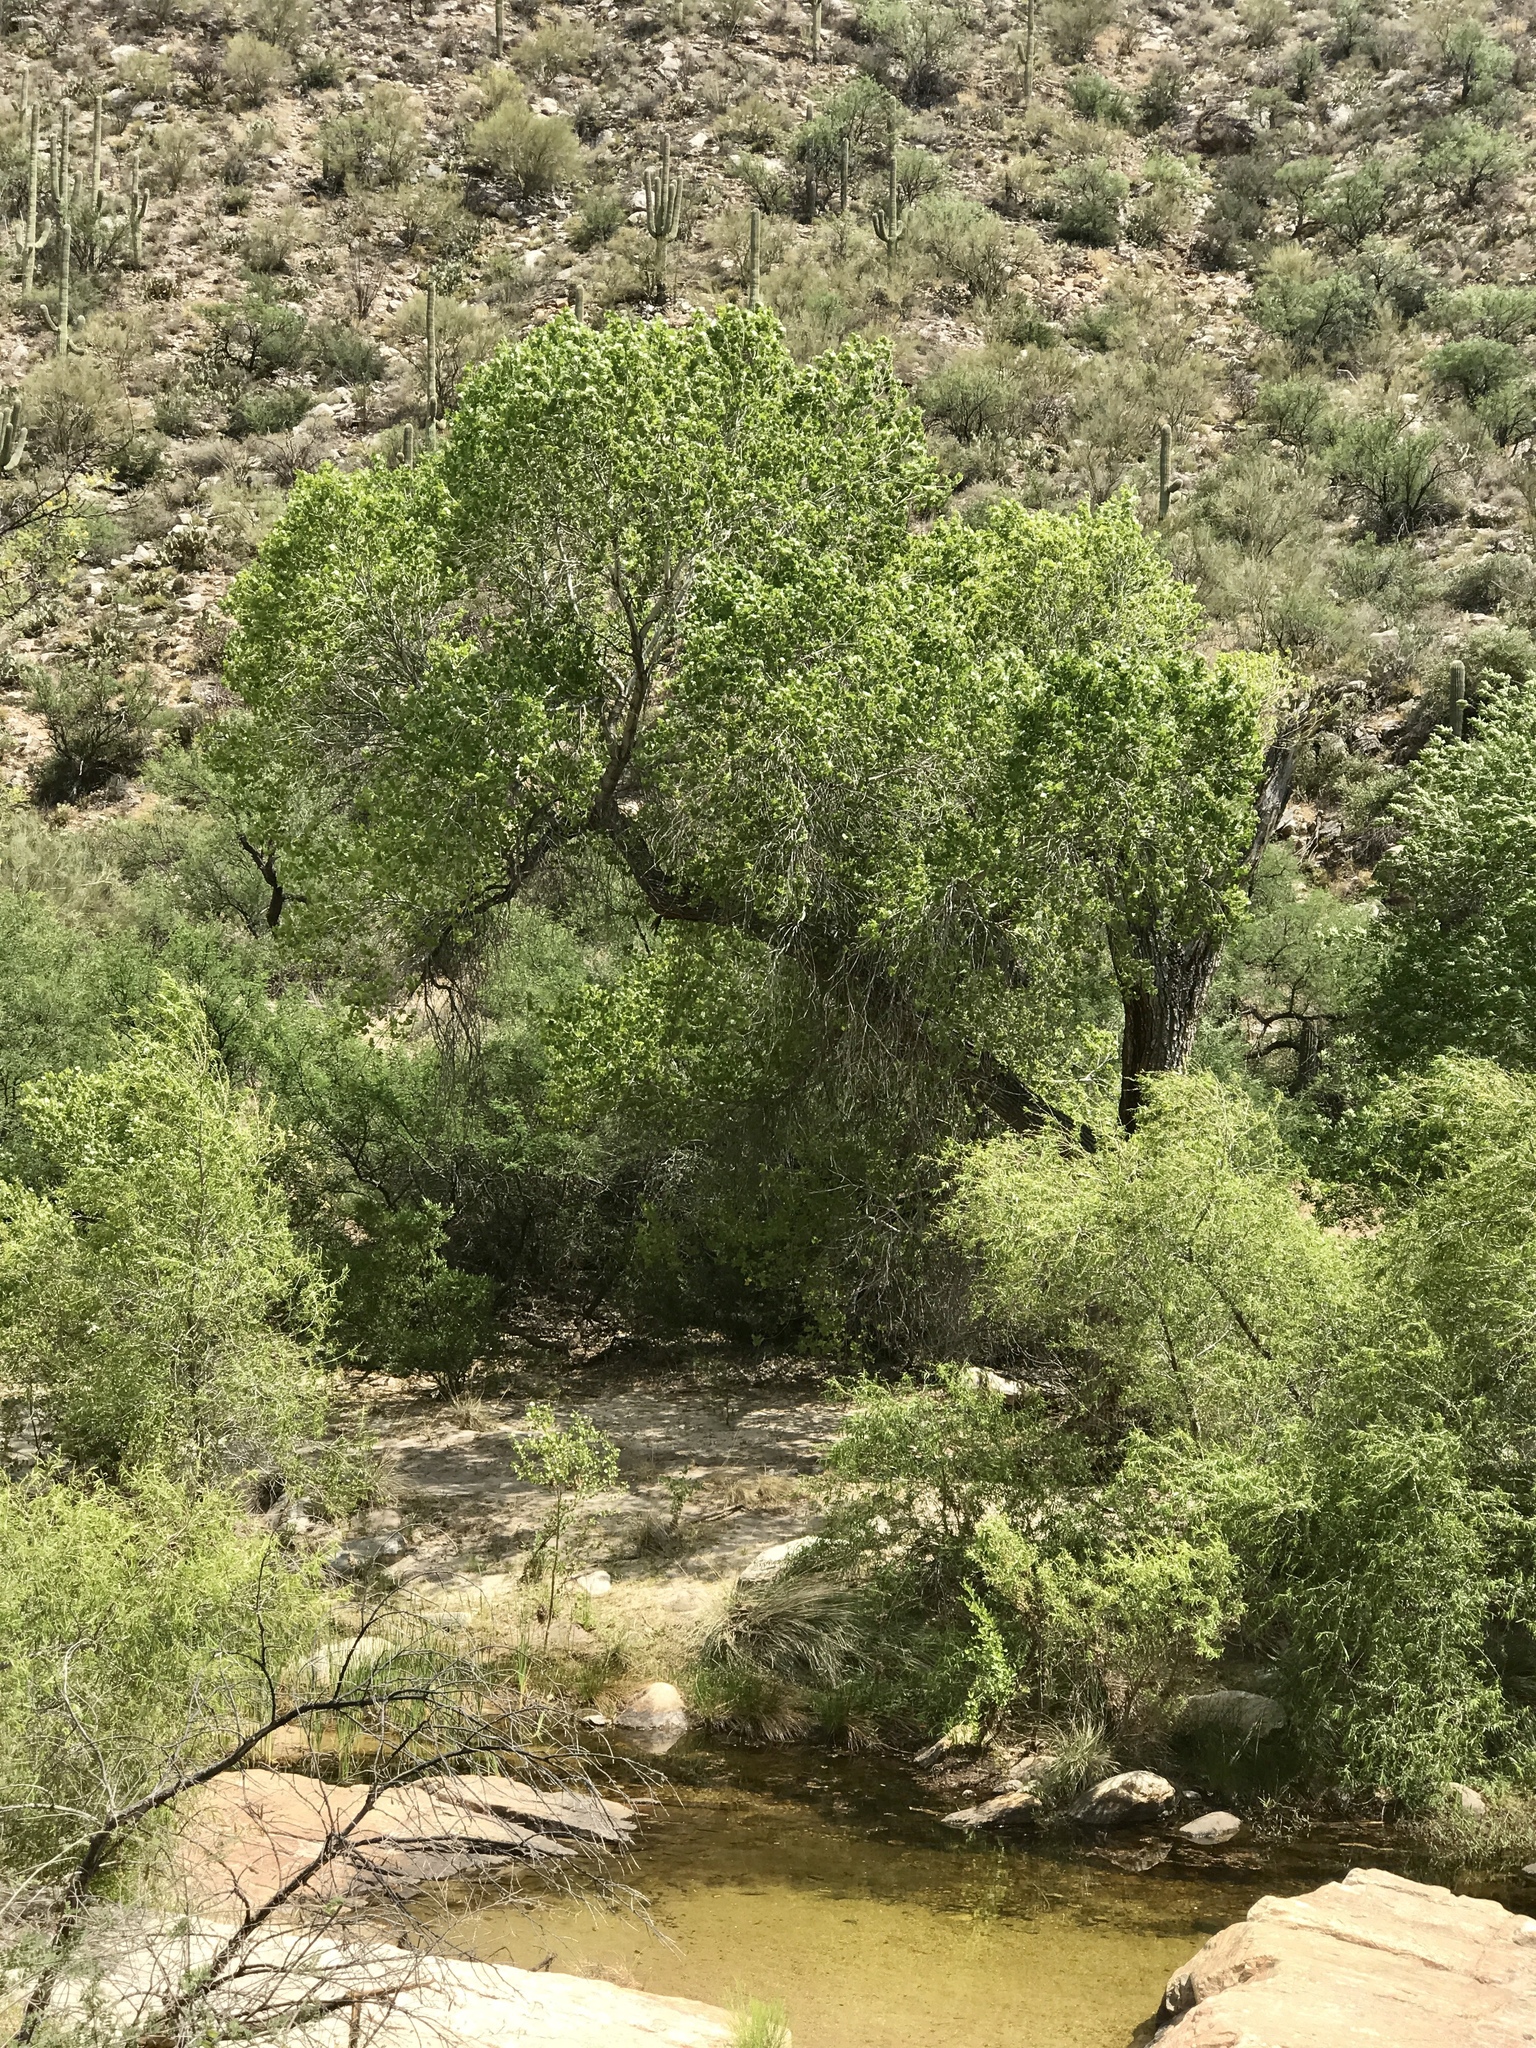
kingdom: Plantae
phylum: Tracheophyta
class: Magnoliopsida
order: Malpighiales
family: Salicaceae
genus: Populus
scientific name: Populus fremontii
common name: Fremont's cottonwood
